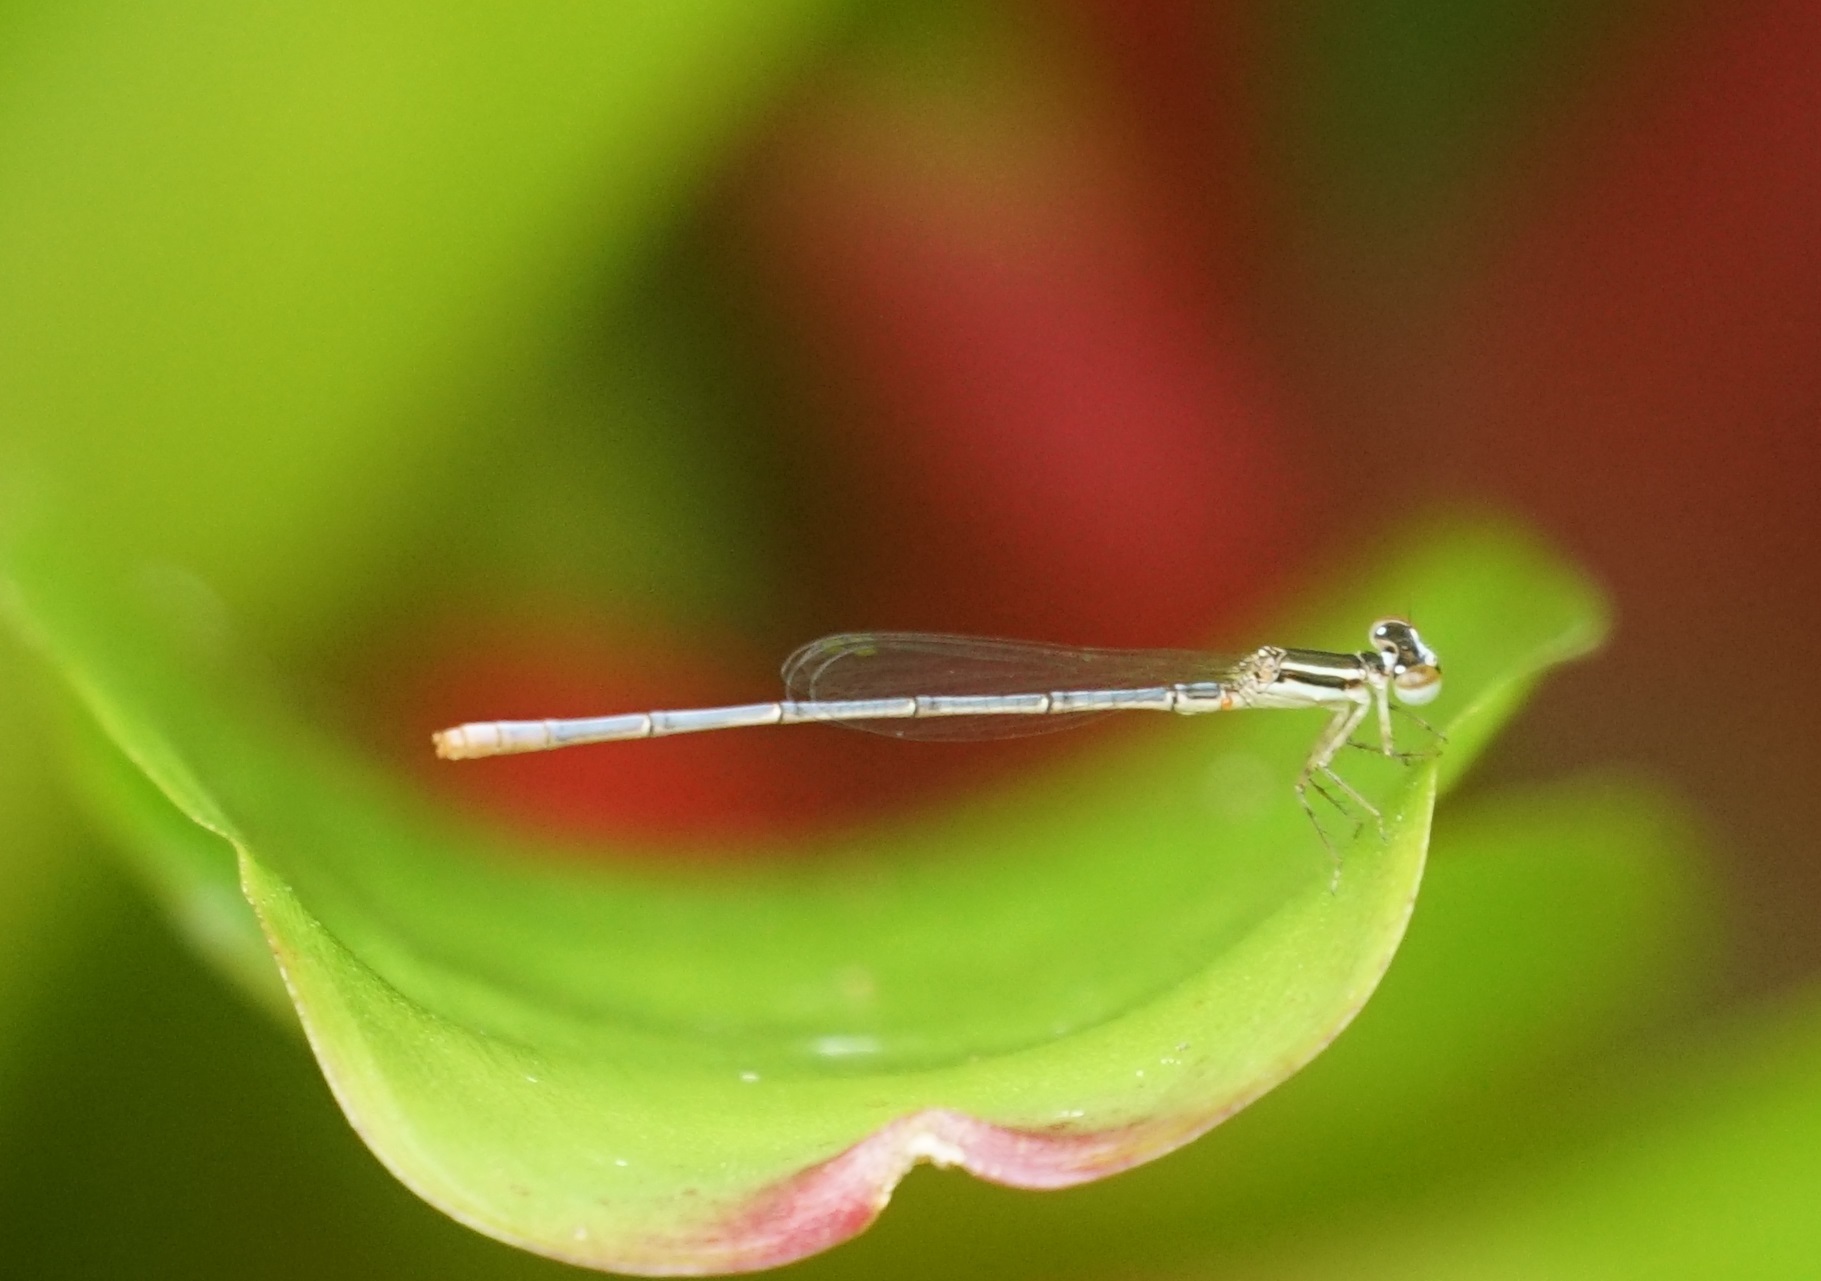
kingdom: Animalia
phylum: Arthropoda
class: Insecta
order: Odonata
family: Coenagrionidae
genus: Agriocnemis
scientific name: Agriocnemis argentea
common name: Silver wisp
